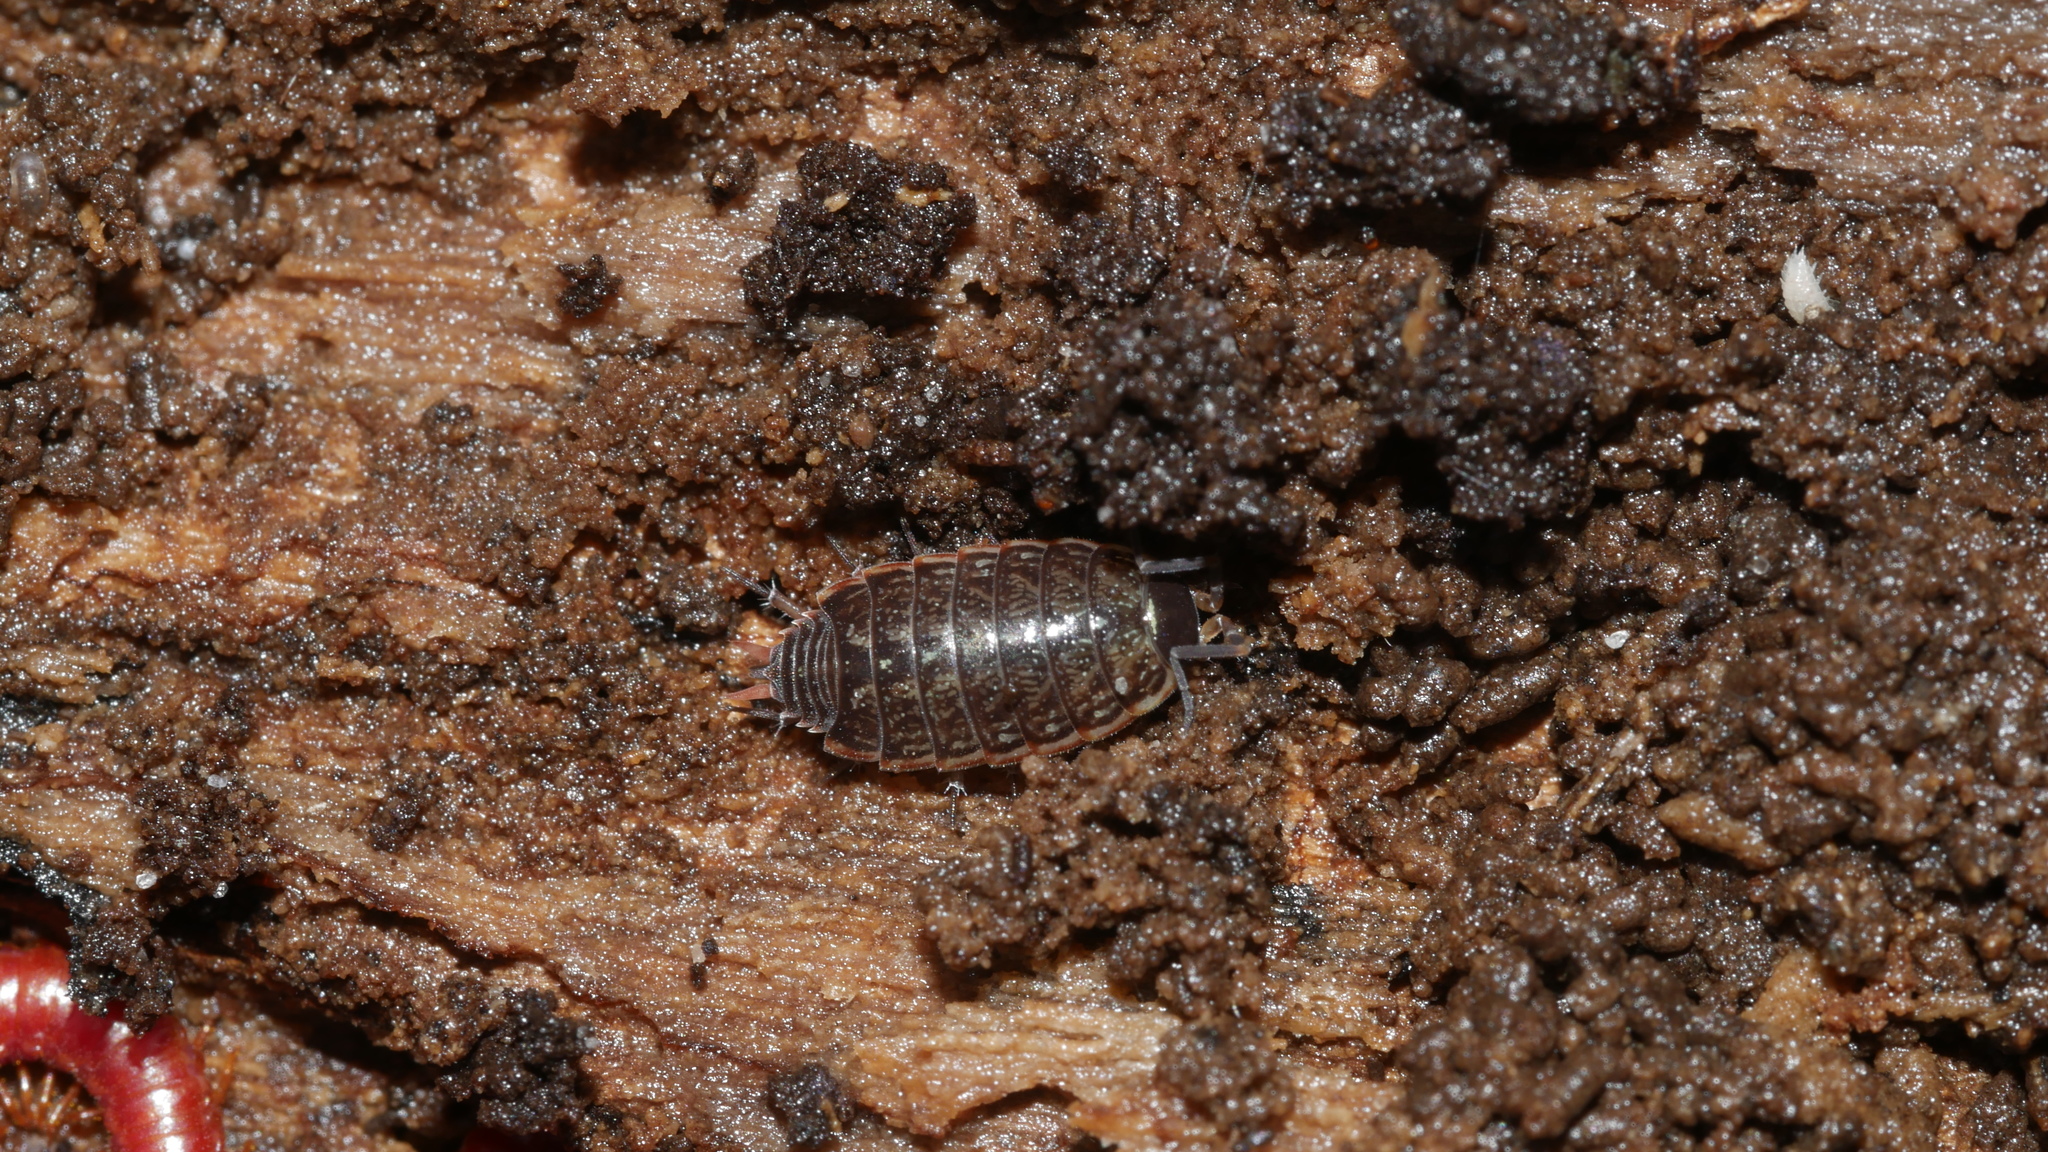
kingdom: Animalia
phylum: Arthropoda
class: Malacostraca
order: Isopoda
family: Philosciidae
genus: Philoscia
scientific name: Philoscia muscorum
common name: Common striped woodlouse
